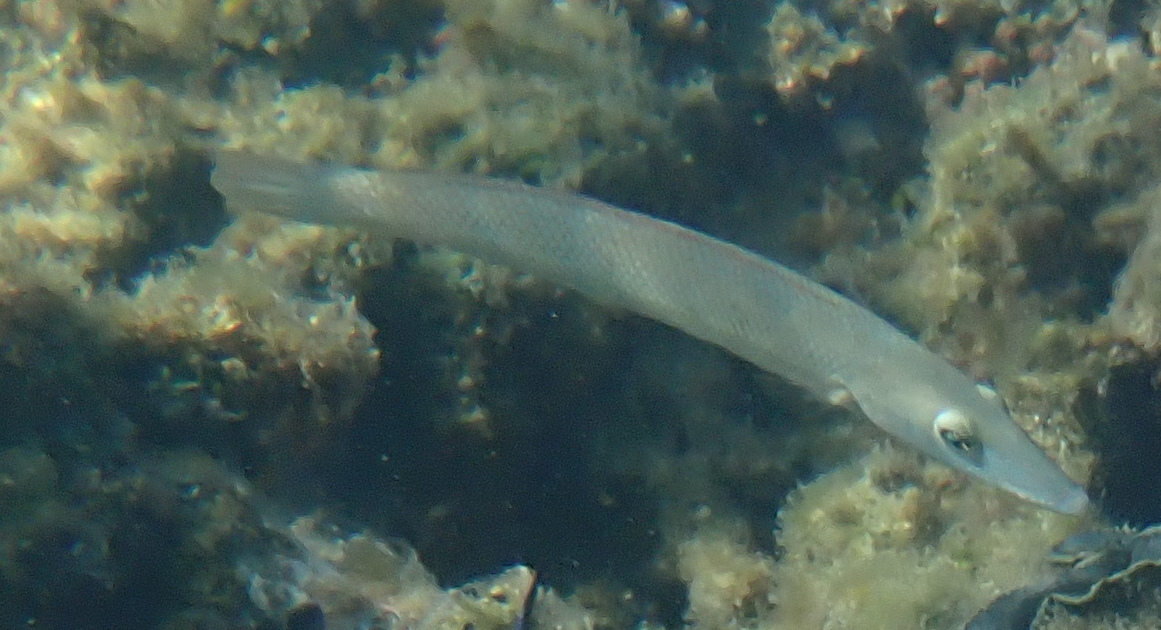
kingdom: Animalia
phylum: Chordata
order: Perciformes
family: Labridae
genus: Cheilio
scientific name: Cheilio inermis
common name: Cigar wrasse
